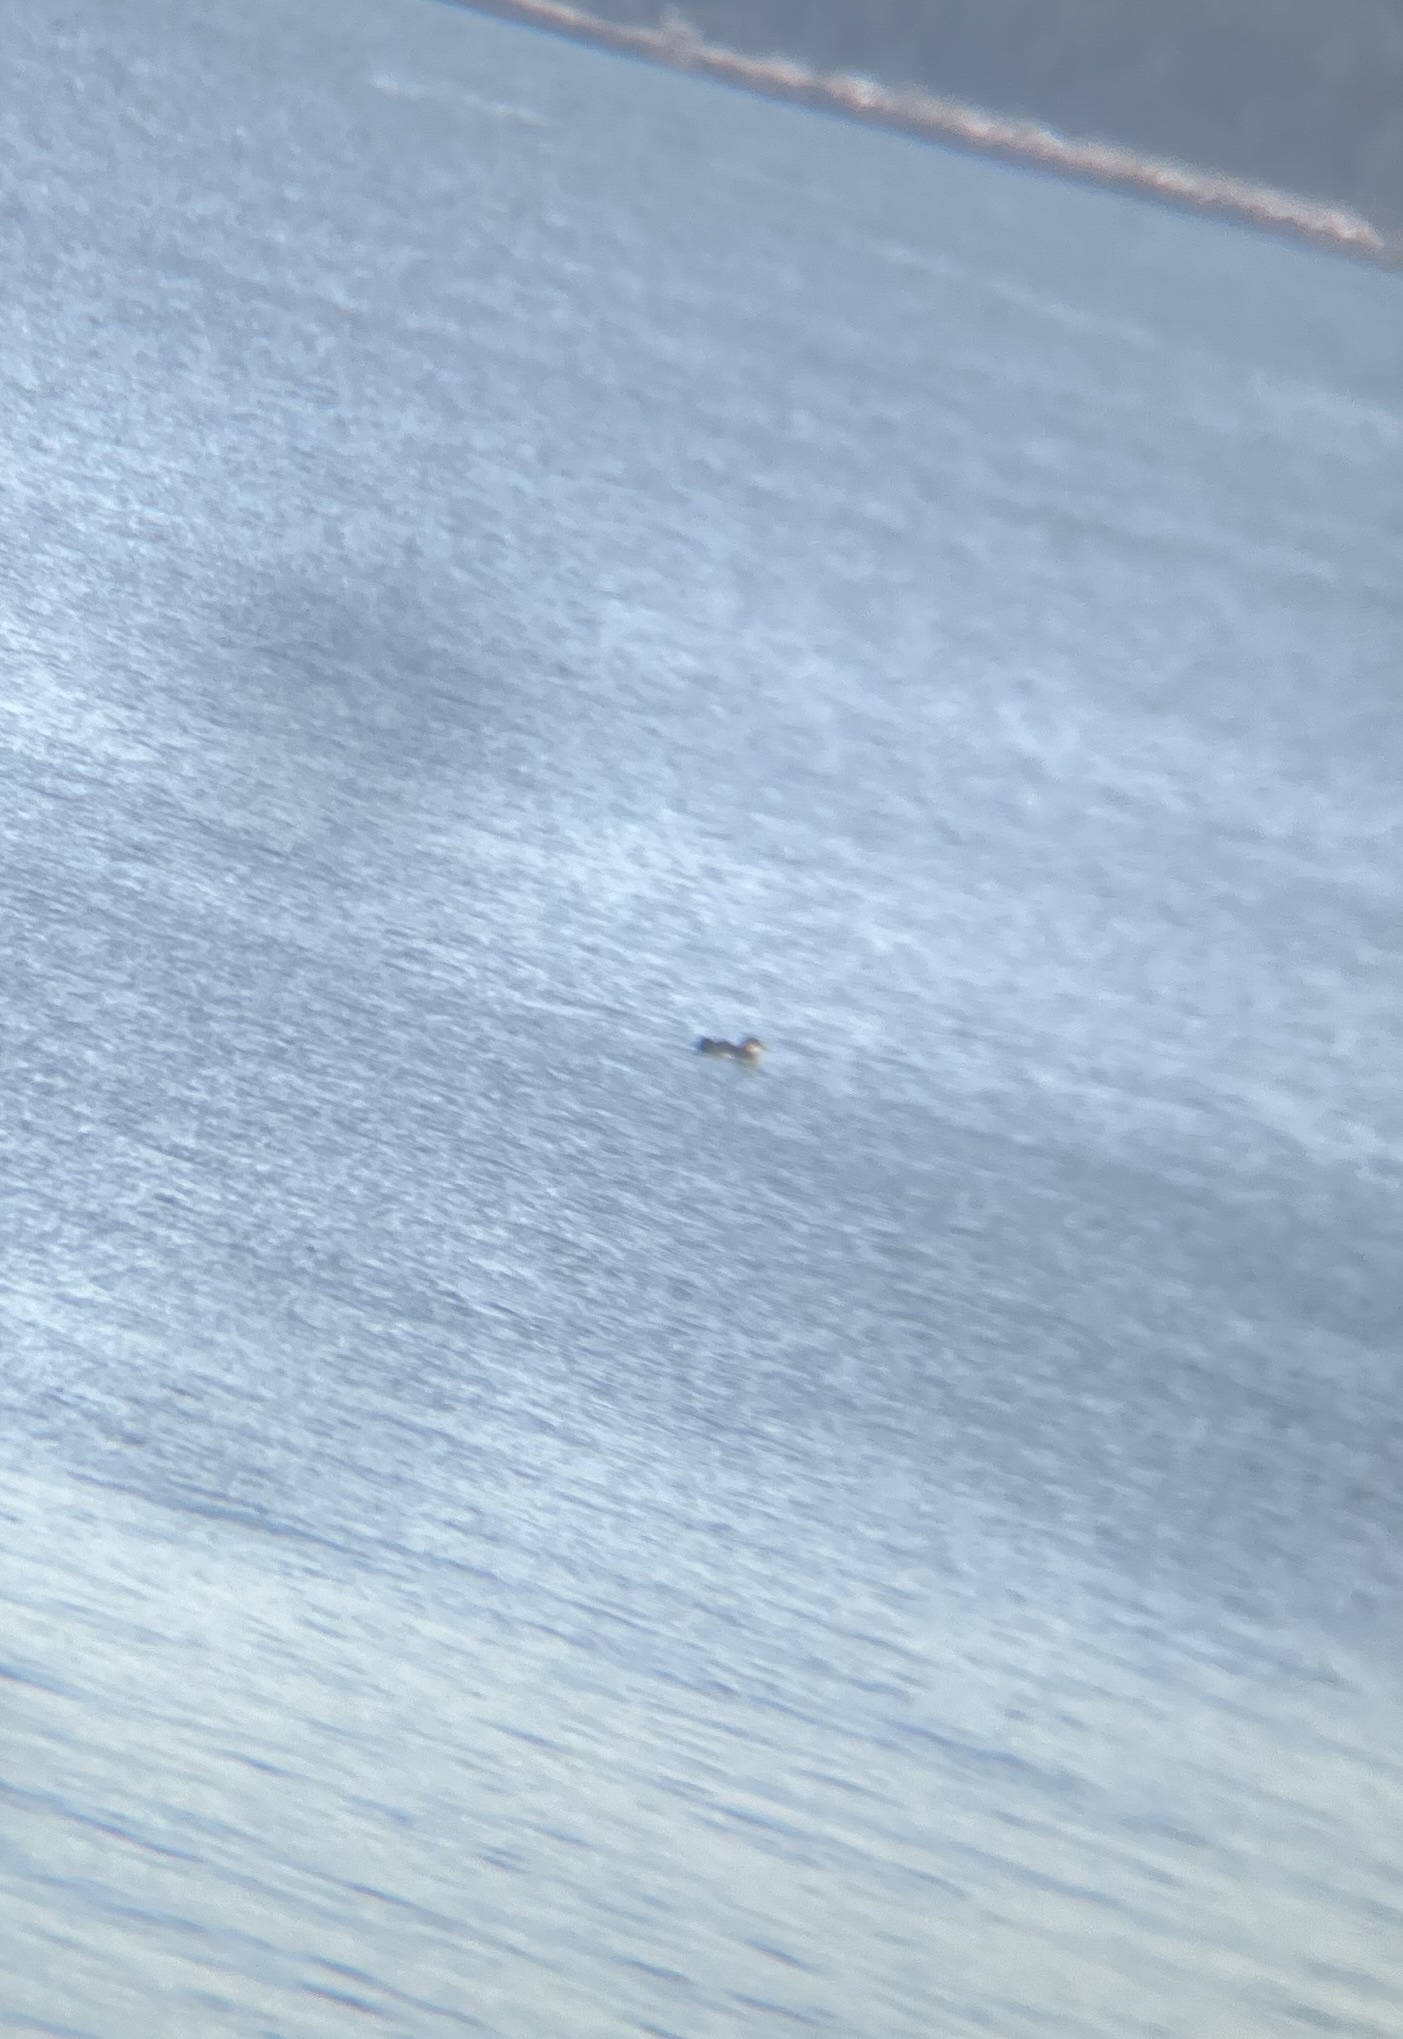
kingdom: Animalia
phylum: Chordata
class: Aves
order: Gaviiformes
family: Gaviidae
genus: Gavia
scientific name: Gavia immer
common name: Common loon
